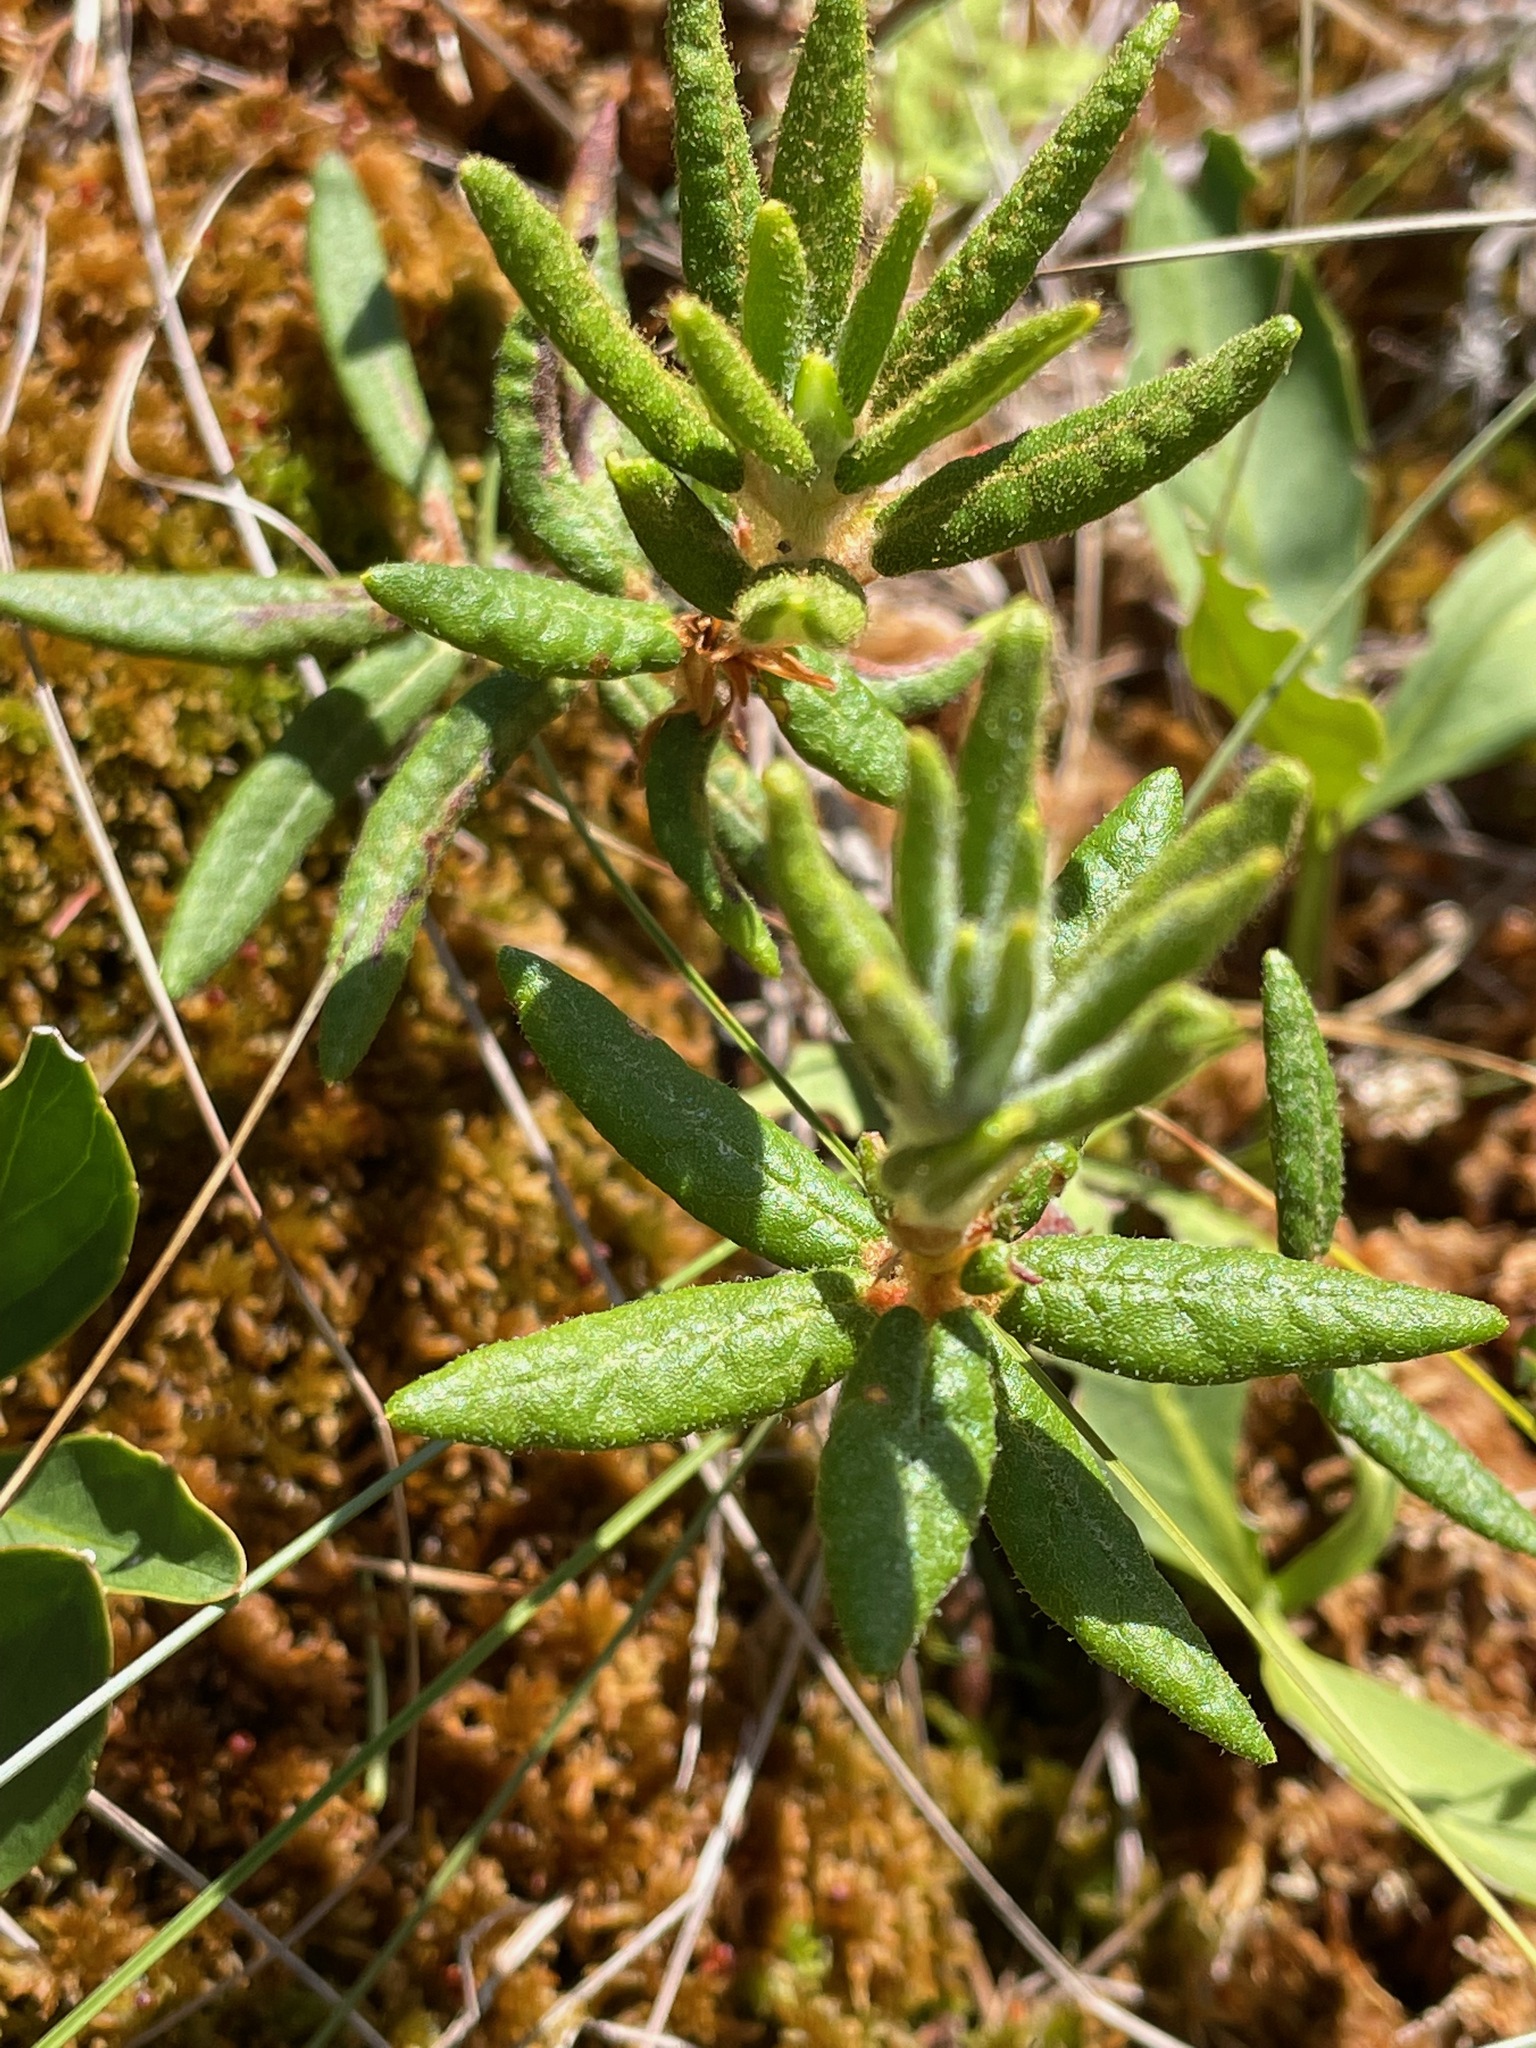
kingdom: Plantae
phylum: Tracheophyta
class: Magnoliopsida
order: Ericales
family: Ericaceae
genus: Rhododendron
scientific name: Rhododendron groenlandicum
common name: Bog labrador tea
